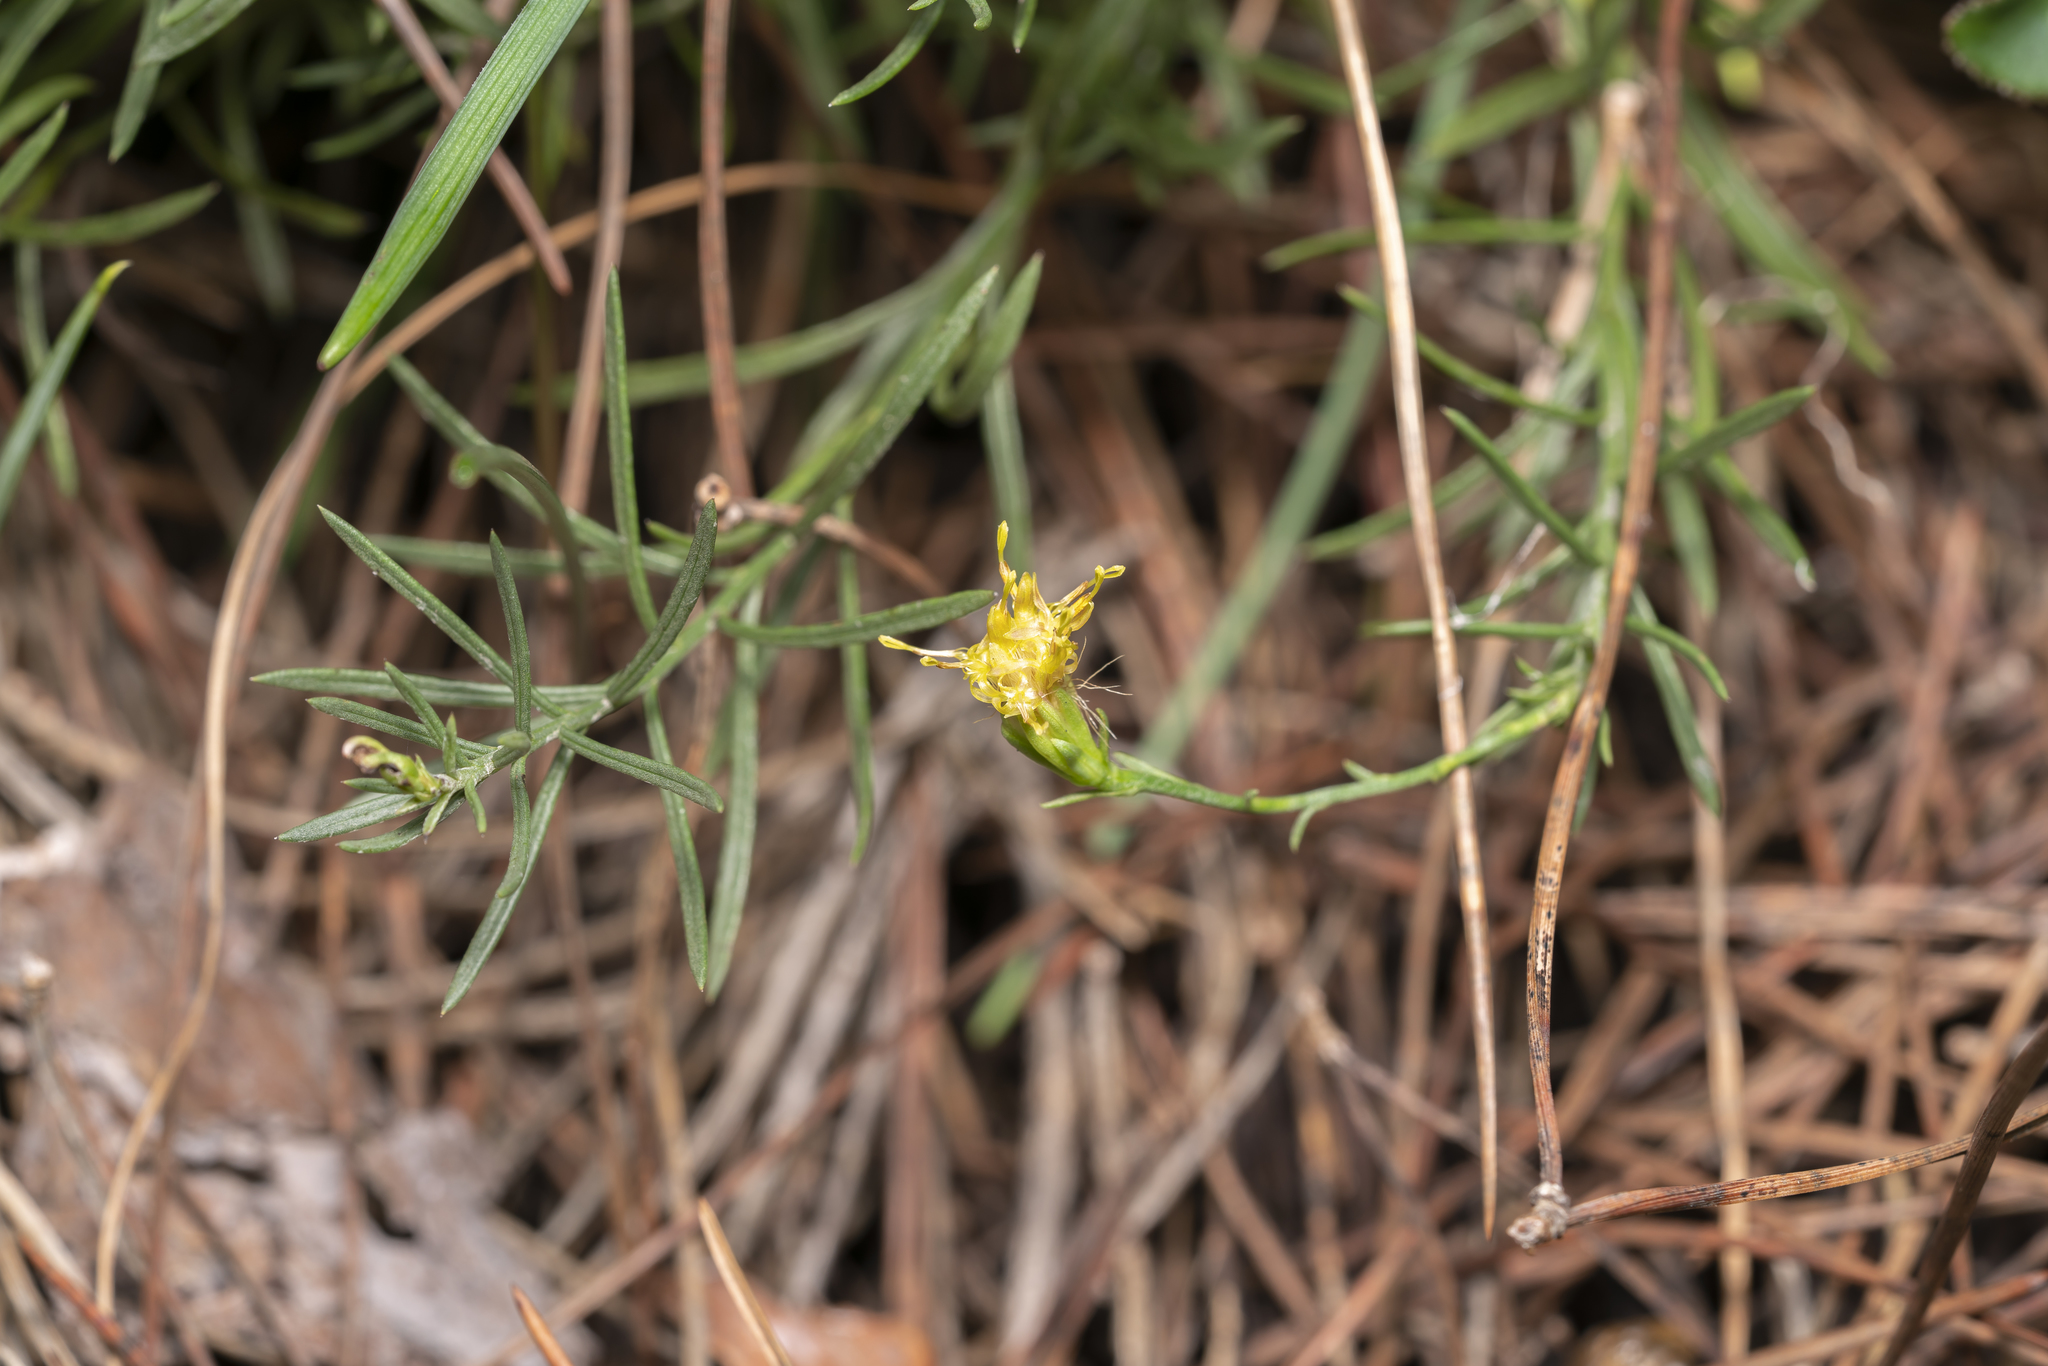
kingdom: Plantae
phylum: Tracheophyta
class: Magnoliopsida
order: Asterales
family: Asteraceae
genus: Galatella
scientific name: Galatella cretica
